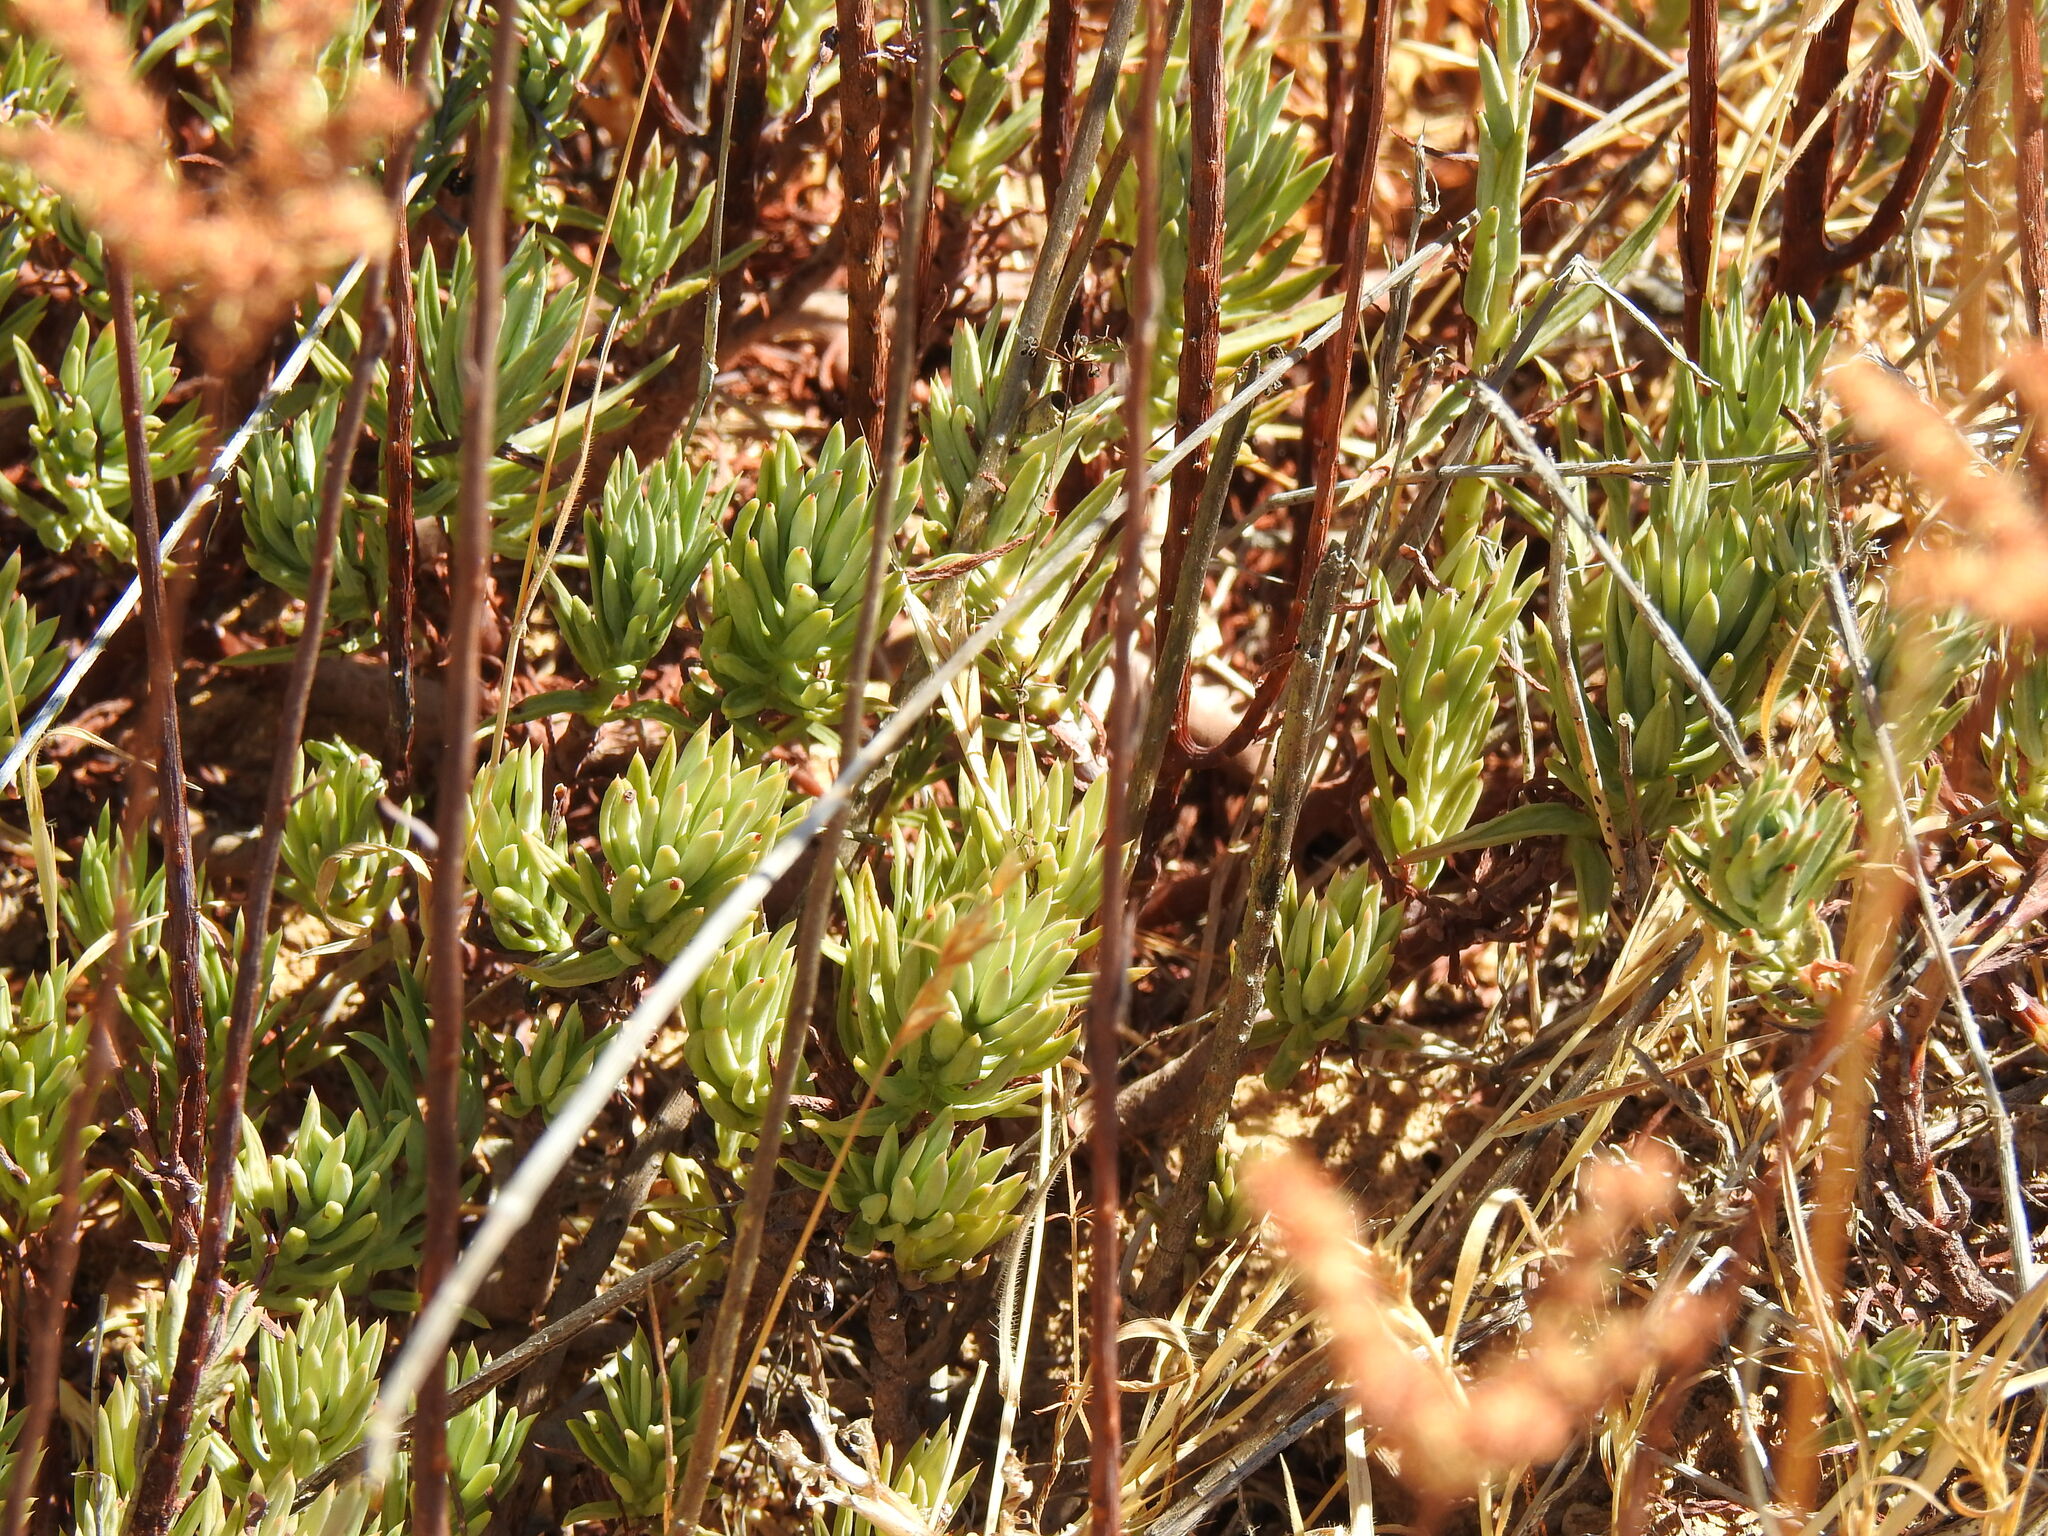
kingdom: Plantae
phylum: Tracheophyta
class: Magnoliopsida
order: Saxifragales
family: Crassulaceae
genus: Petrosedum
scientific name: Petrosedum sediforme
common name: Pale stonecrop
